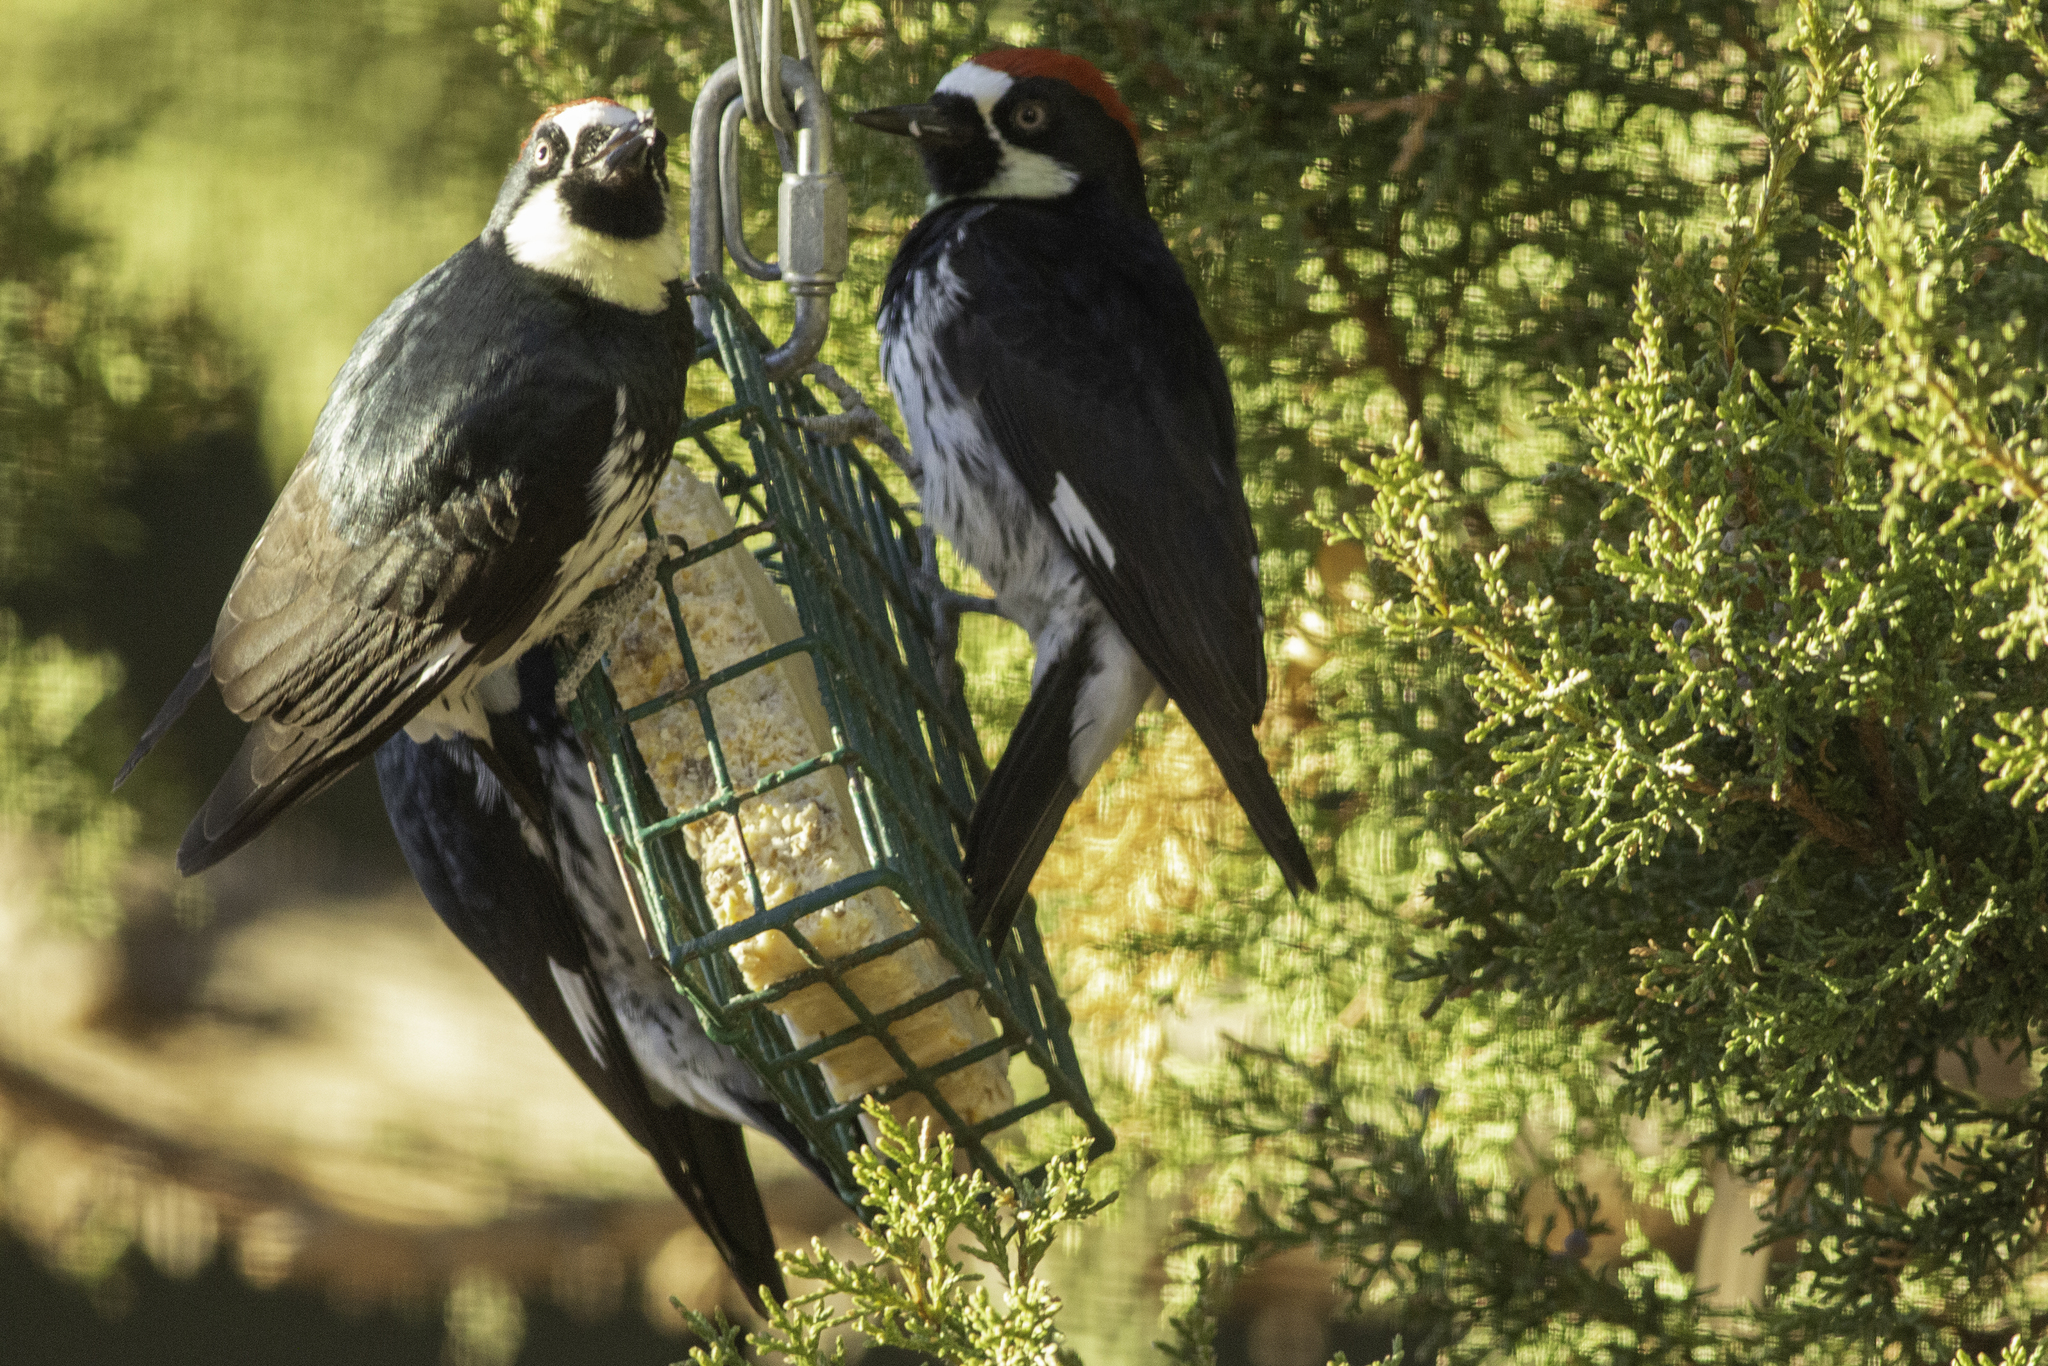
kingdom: Animalia
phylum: Chordata
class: Aves
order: Piciformes
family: Picidae
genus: Melanerpes
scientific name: Melanerpes formicivorus
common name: Acorn woodpecker
